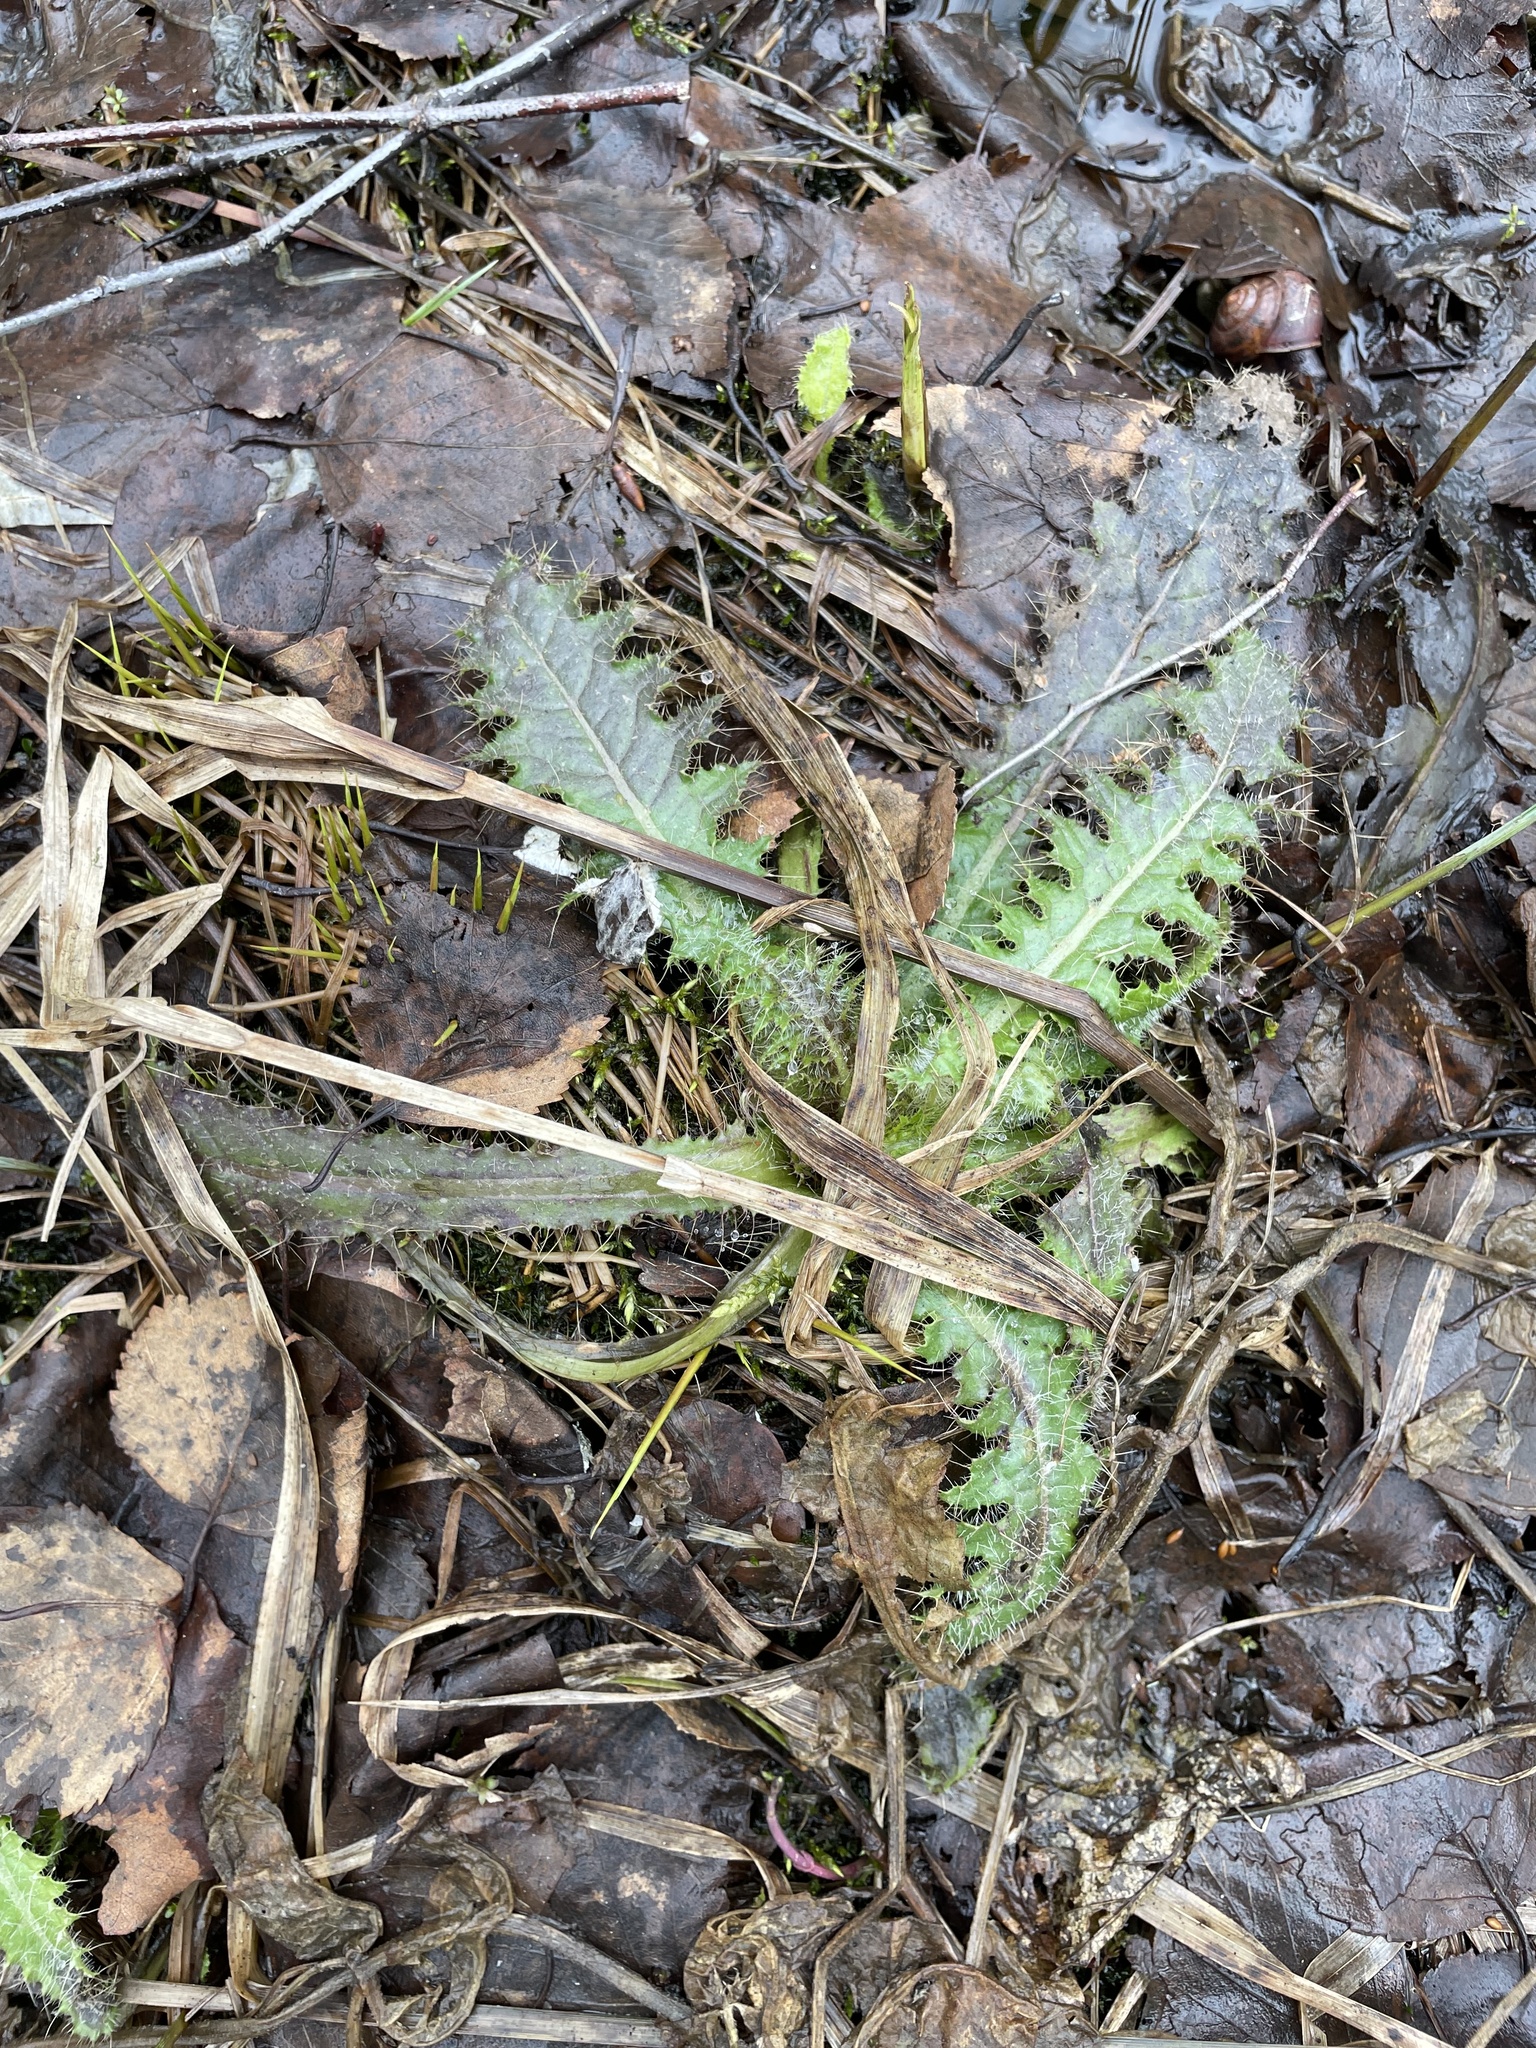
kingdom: Plantae
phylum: Tracheophyta
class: Magnoliopsida
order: Asterales
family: Asteraceae
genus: Cirsium
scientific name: Cirsium palustre
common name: Marsh thistle
